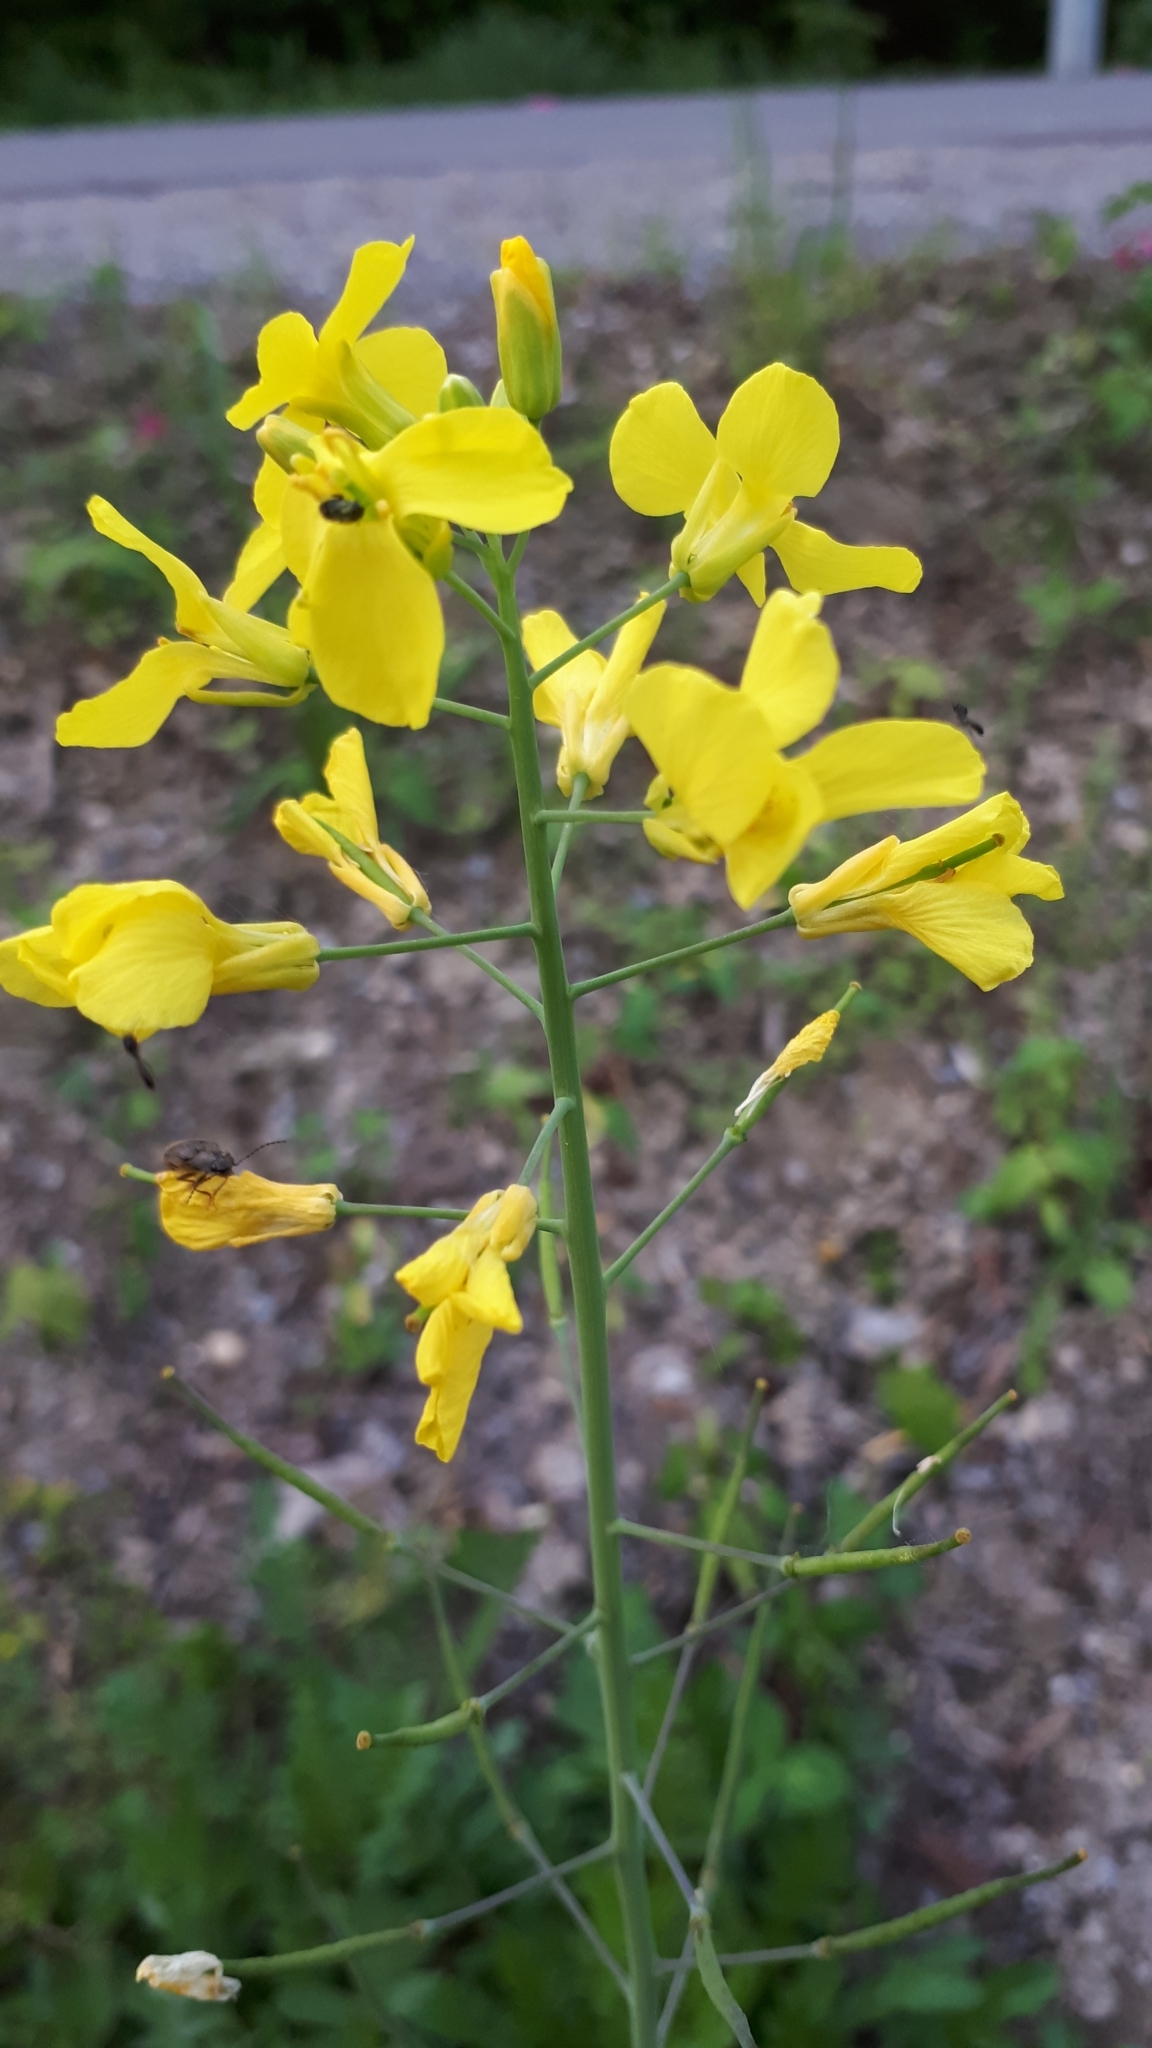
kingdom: Plantae
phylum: Tracheophyta
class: Magnoliopsida
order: Brassicales
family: Brassicaceae
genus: Brassica
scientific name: Brassica napus
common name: Rape
